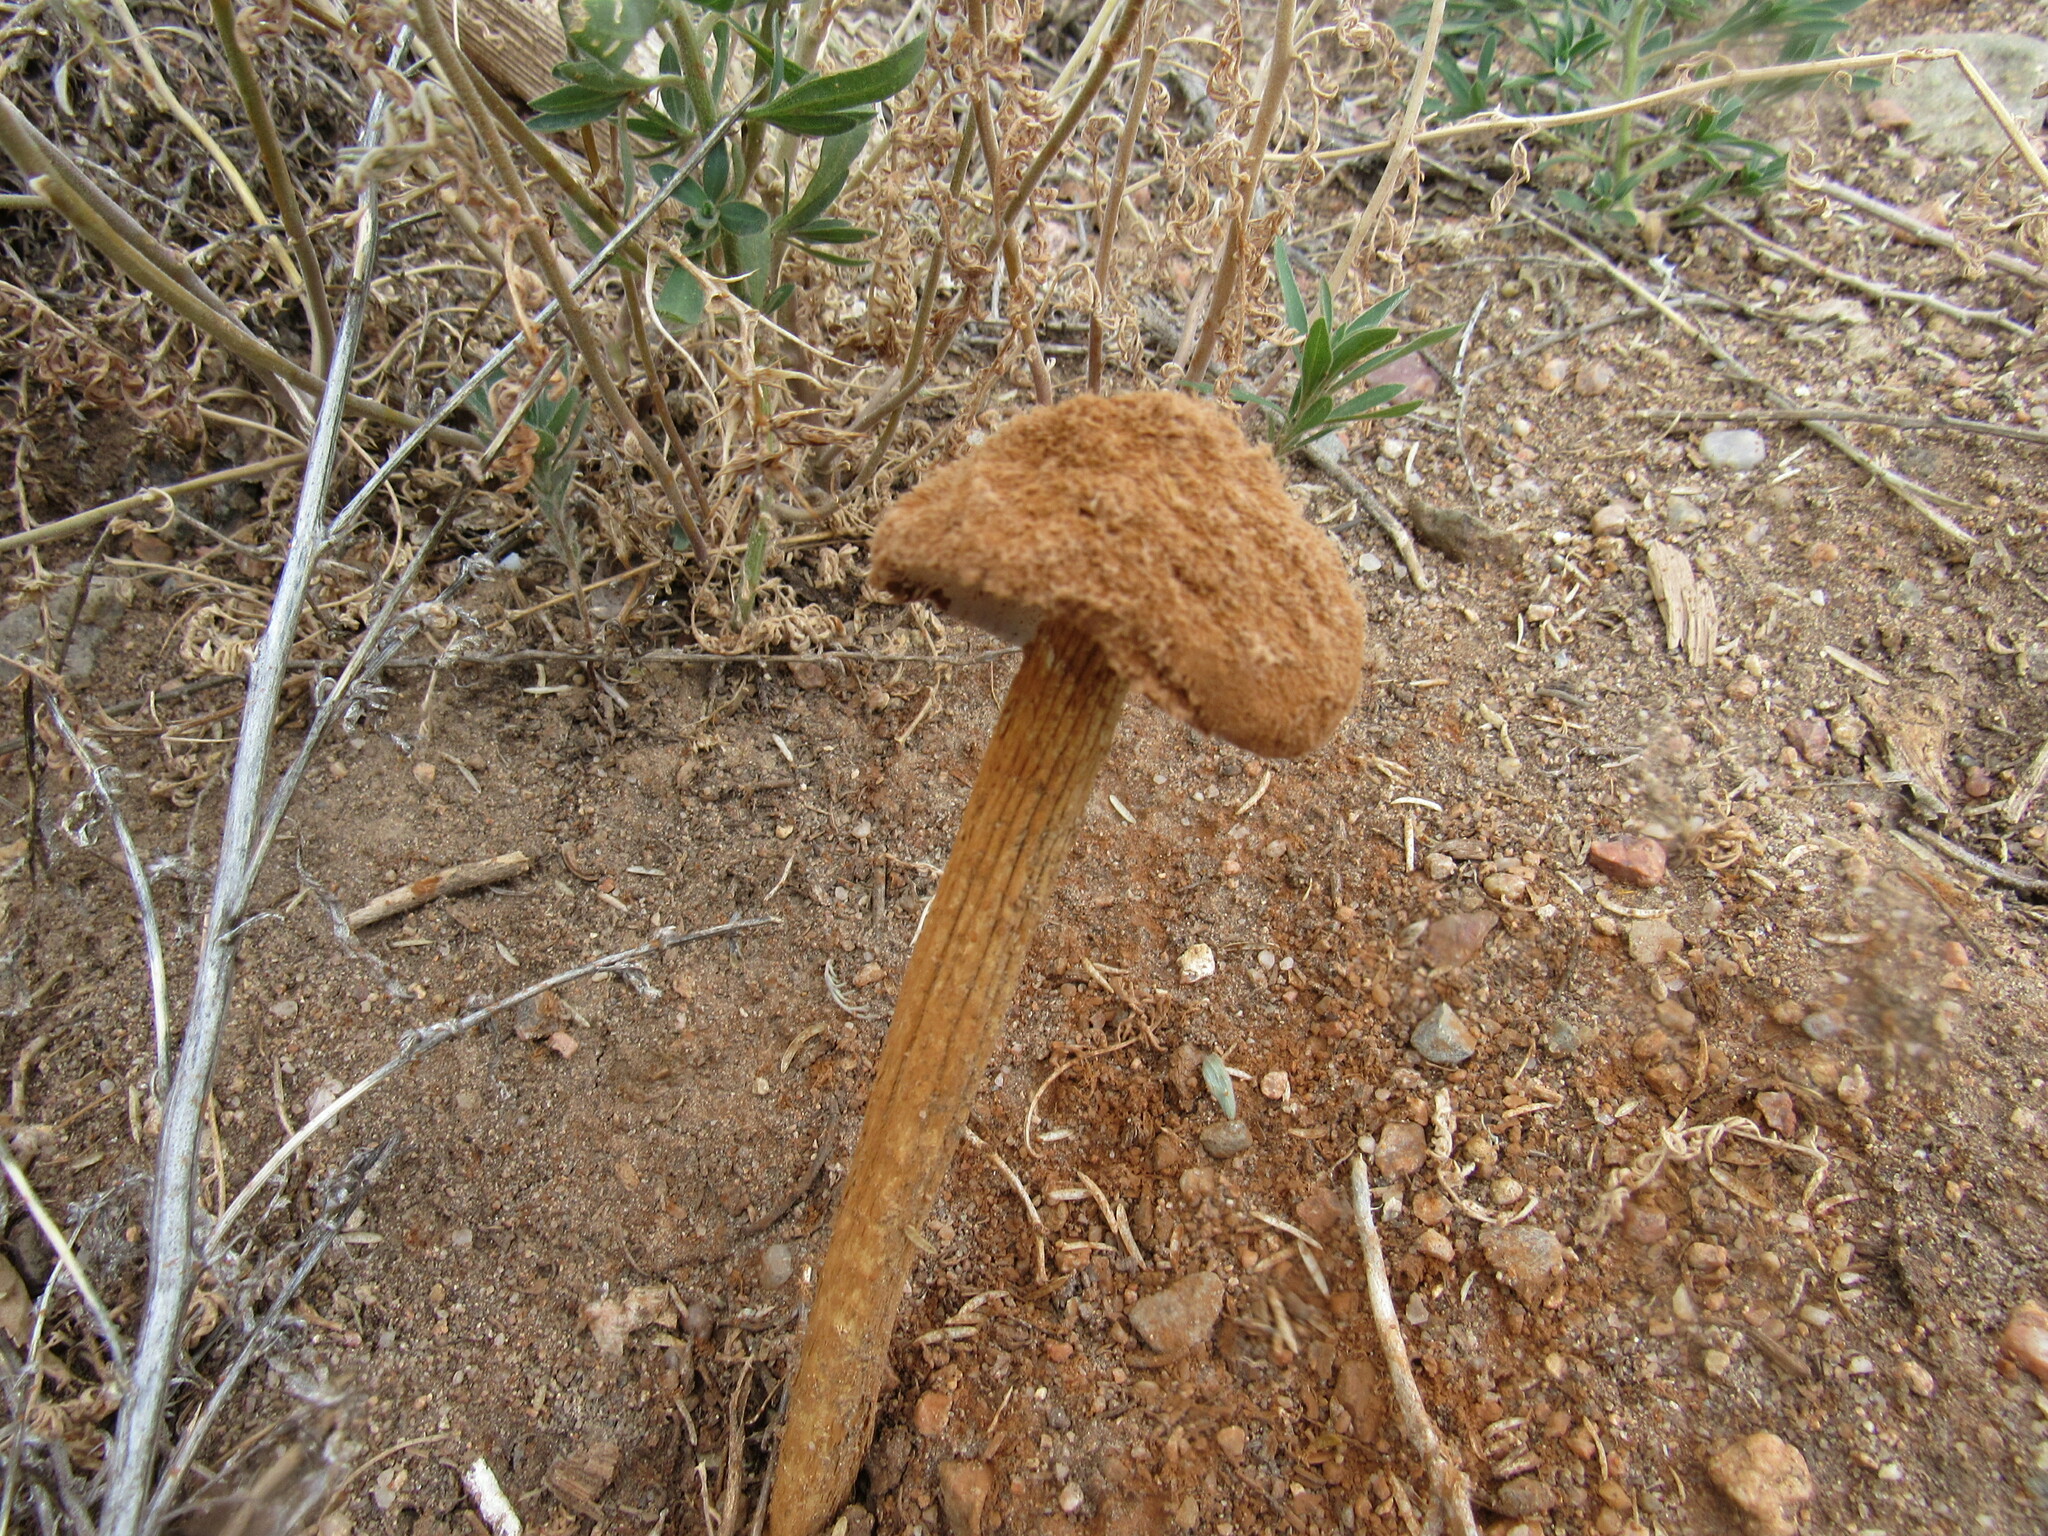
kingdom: Fungi
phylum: Basidiomycota
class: Agaricomycetes
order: Agaricales
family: Agaricaceae
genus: Battarrea
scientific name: Battarrea phalloides
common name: Sandy stiltball
